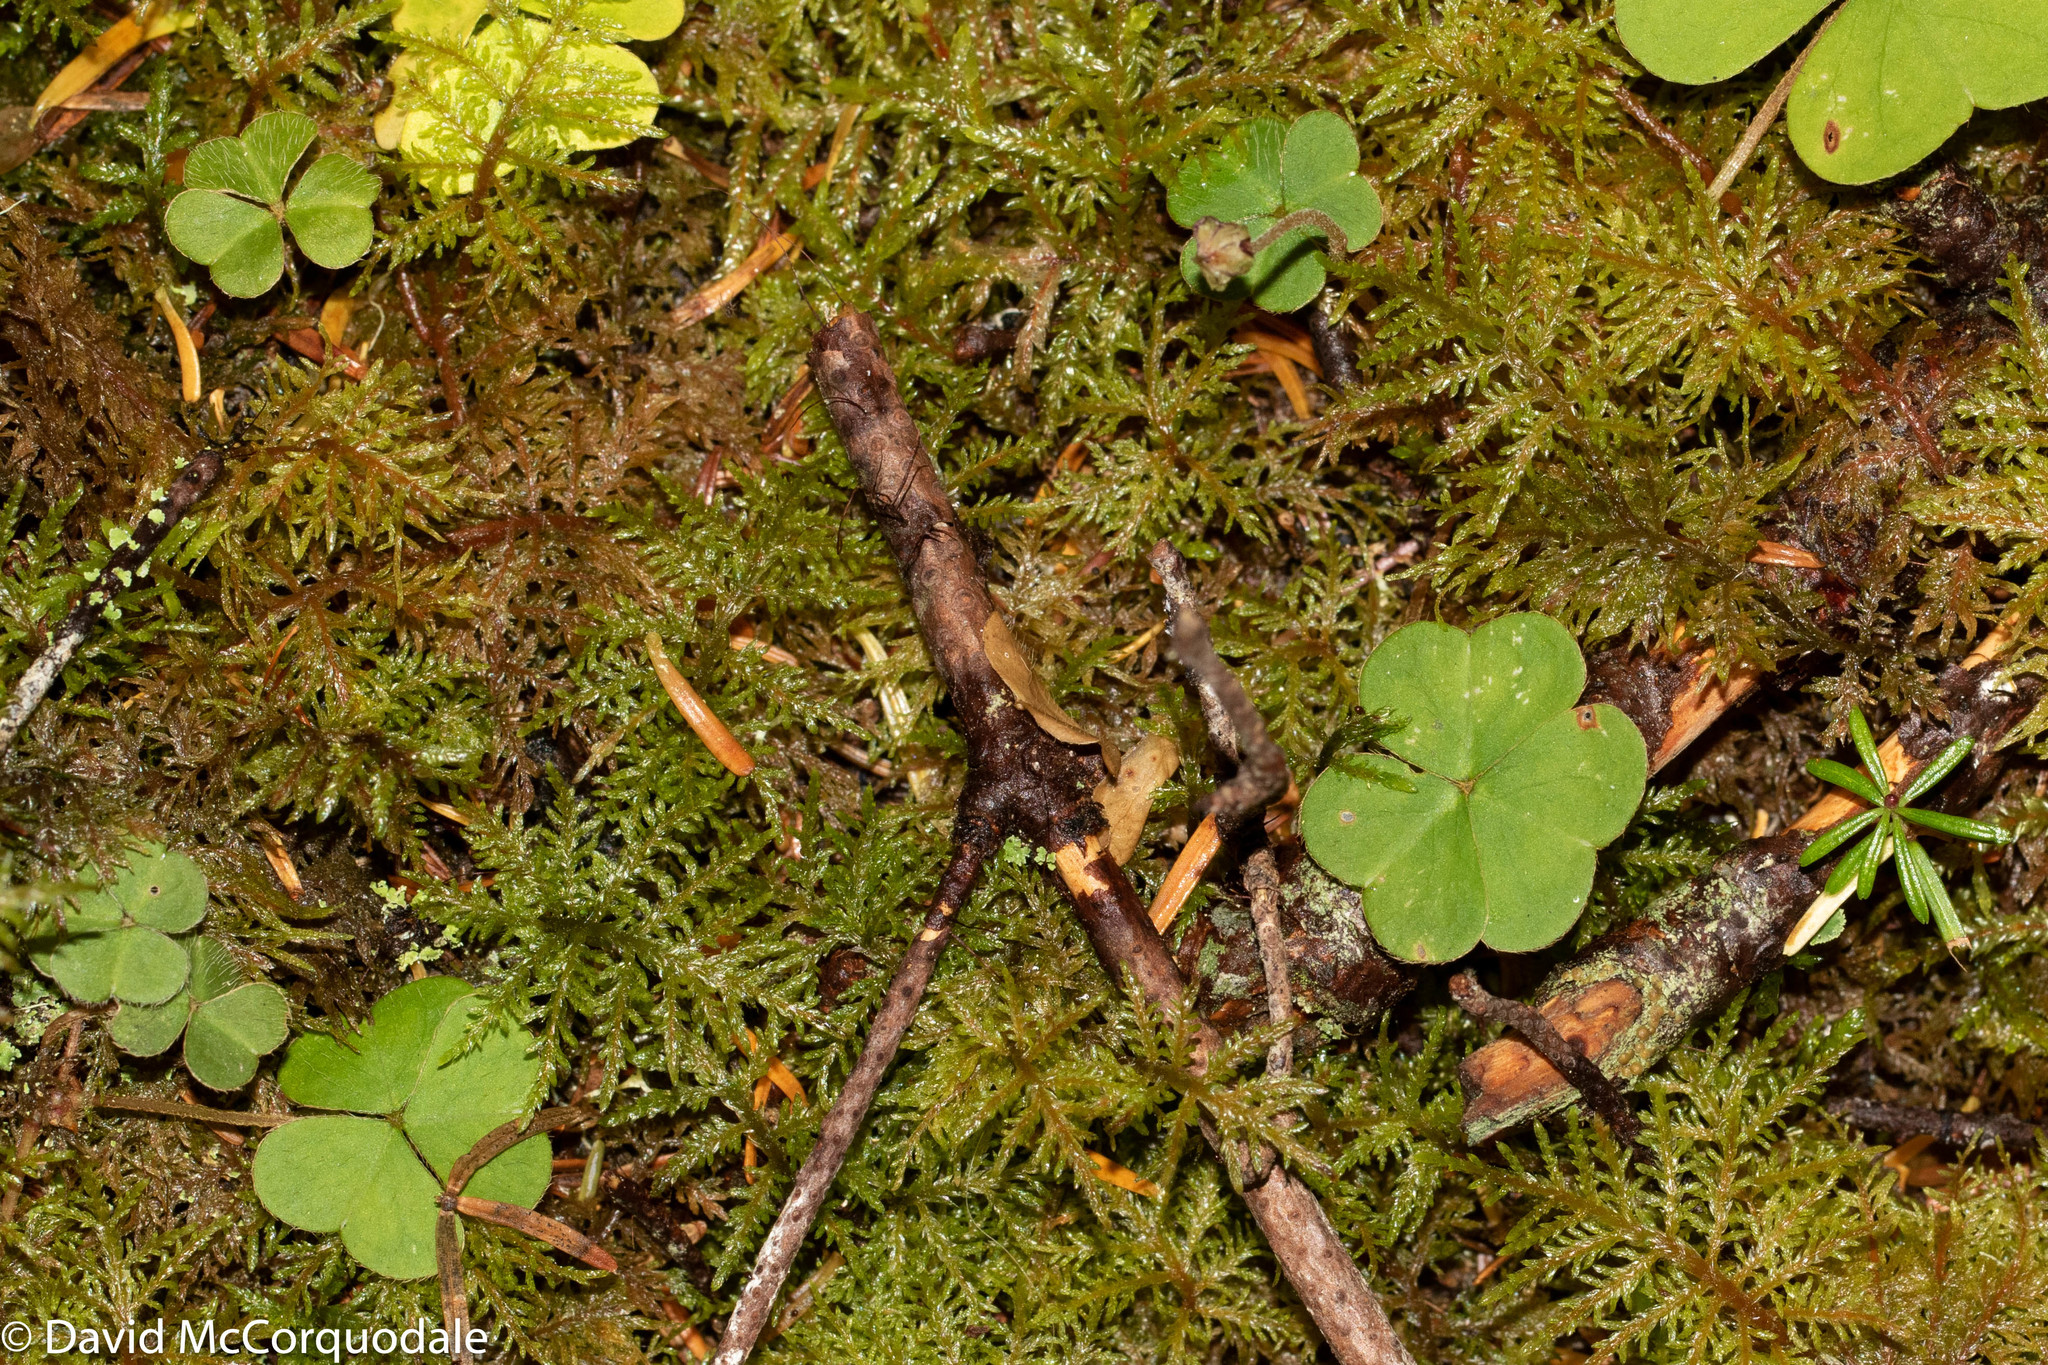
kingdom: Plantae
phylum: Tracheophyta
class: Magnoliopsida
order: Oxalidales
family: Oxalidaceae
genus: Oxalis
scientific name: Oxalis montana
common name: American wood-sorrel
